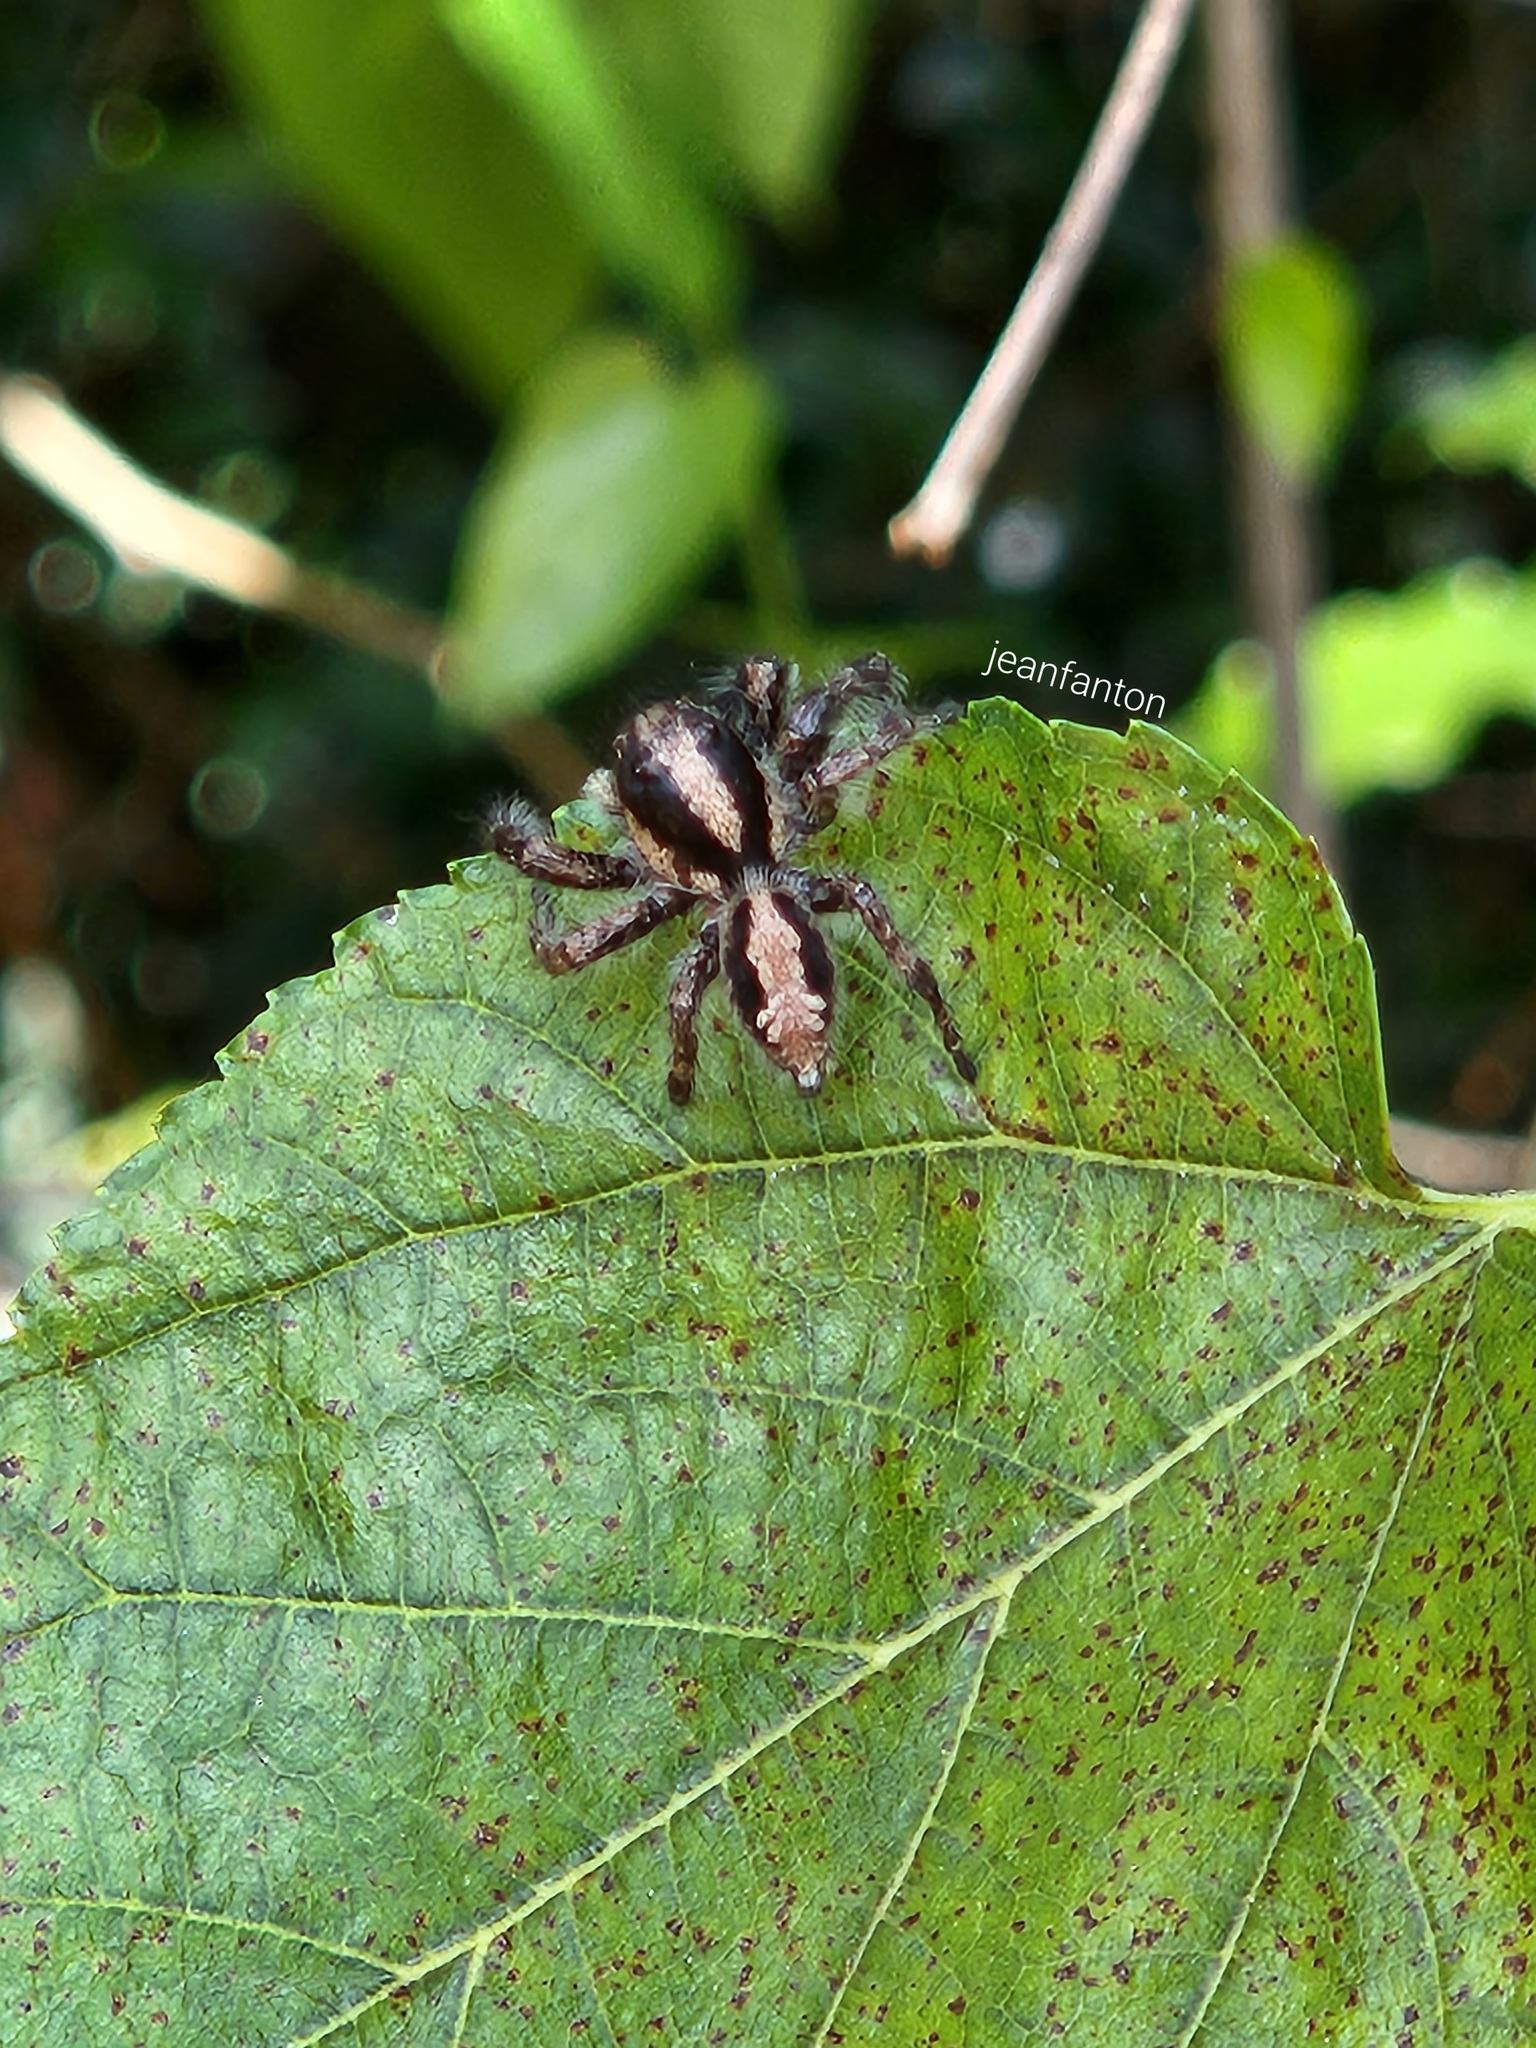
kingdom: Animalia
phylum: Arthropoda
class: Arachnida
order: Araneae
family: Salticidae
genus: Megafreya
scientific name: Megafreya sutrix
